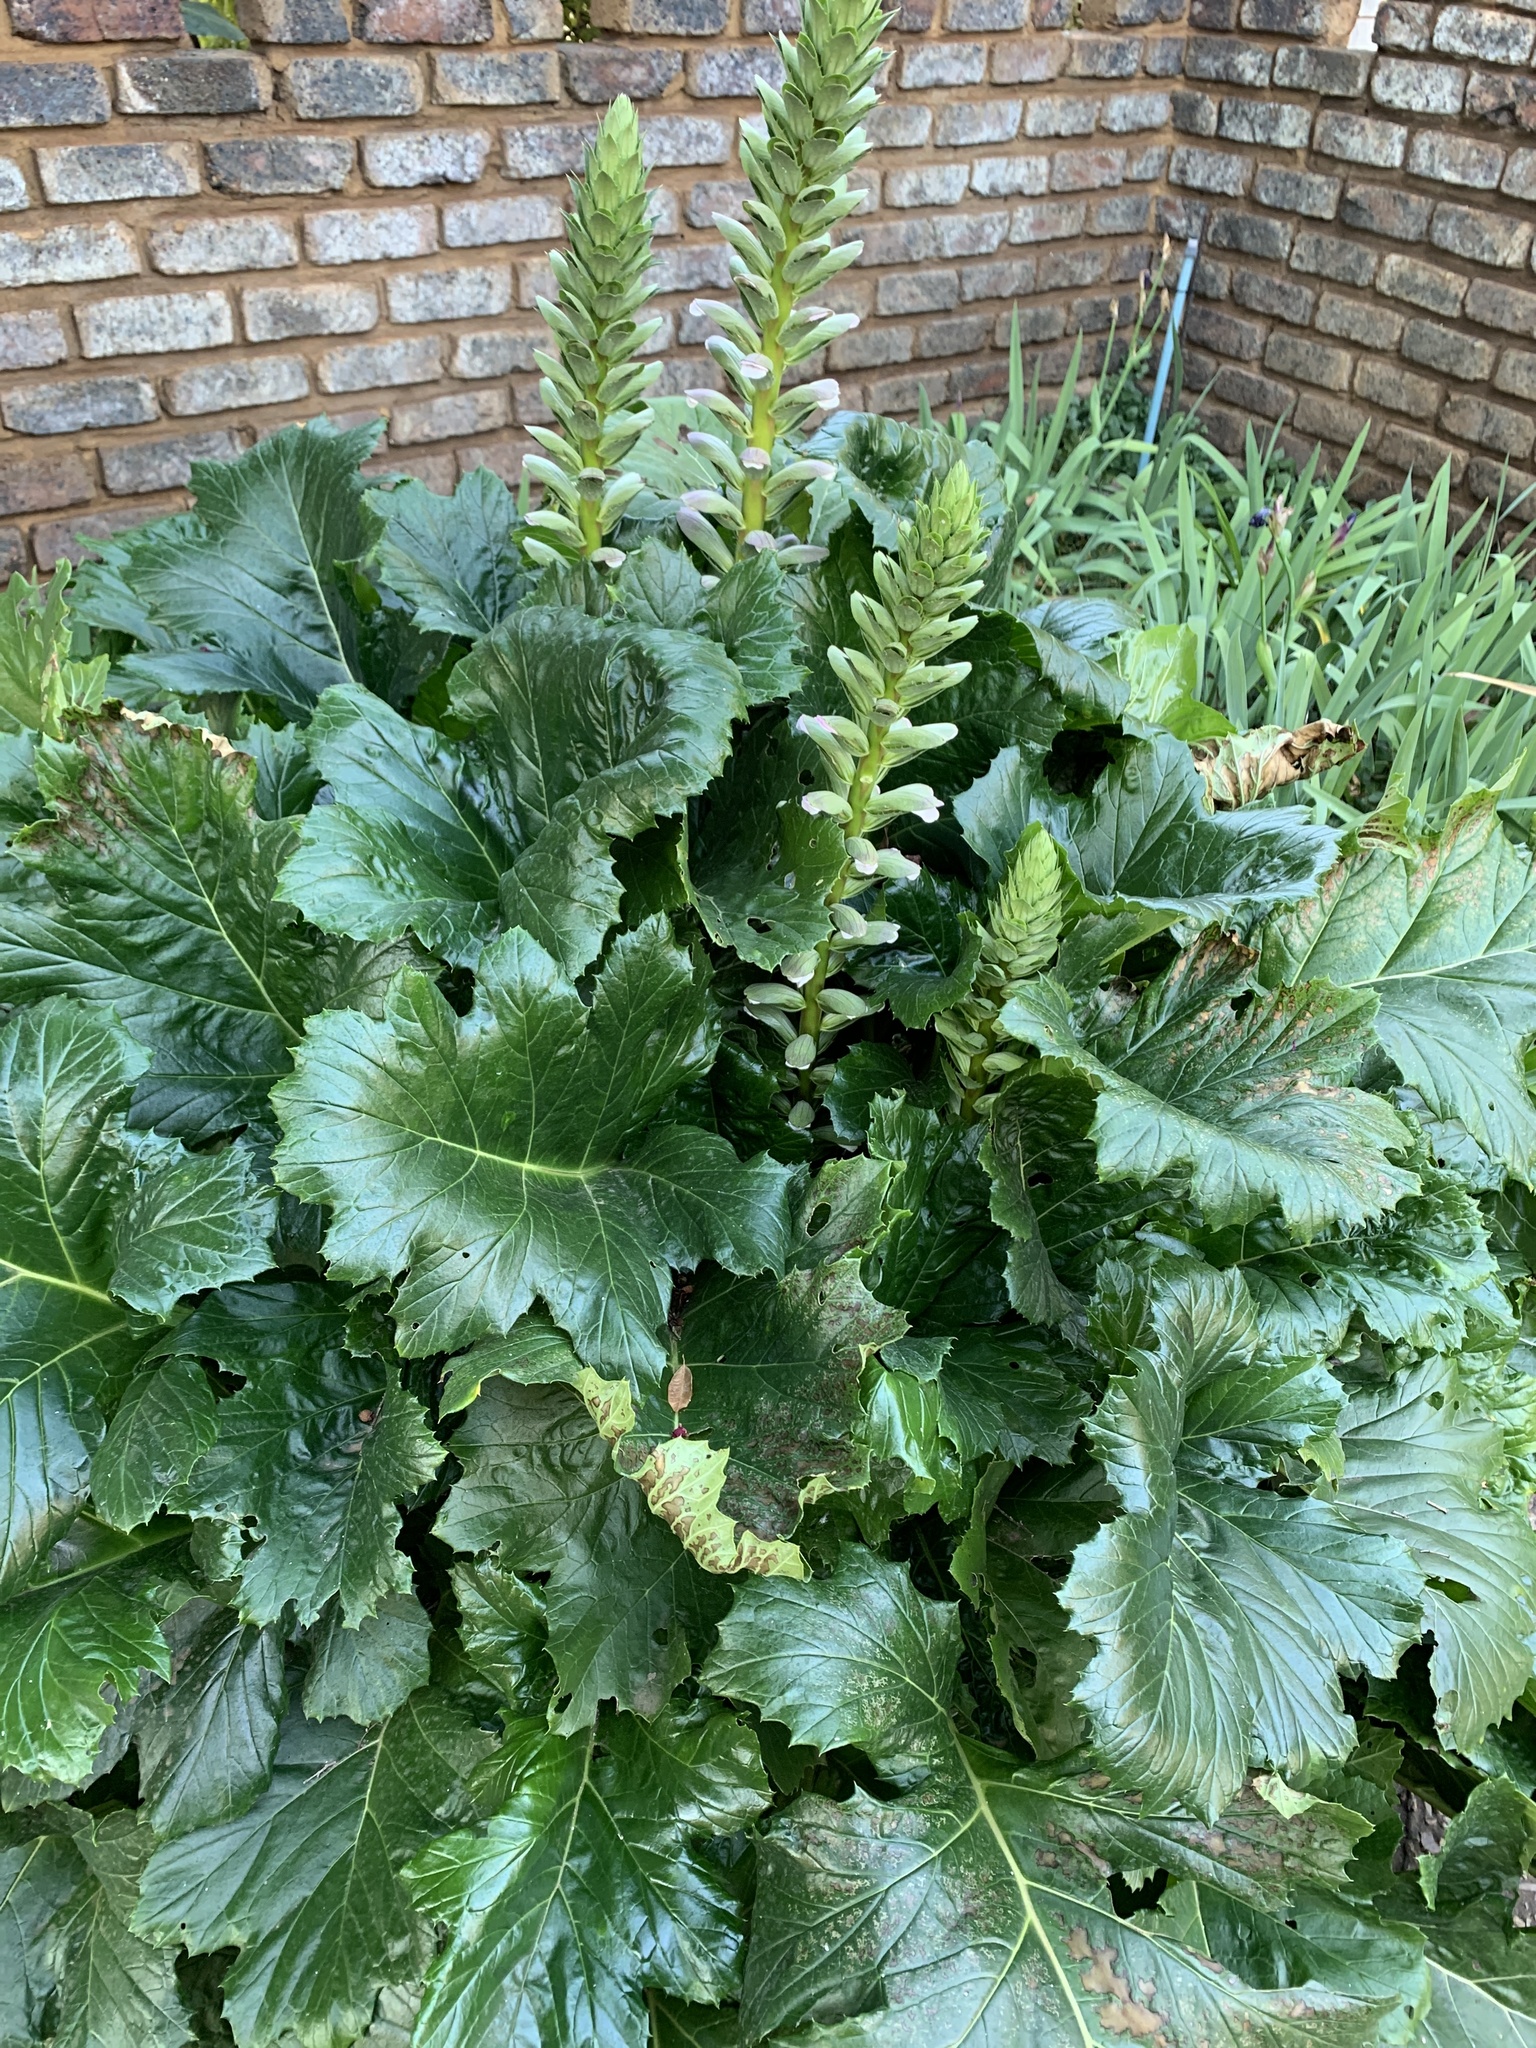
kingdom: Plantae
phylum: Tracheophyta
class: Magnoliopsida
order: Lamiales
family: Acanthaceae
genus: Acanthus
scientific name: Acanthus mollis
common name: Bear's-breech
